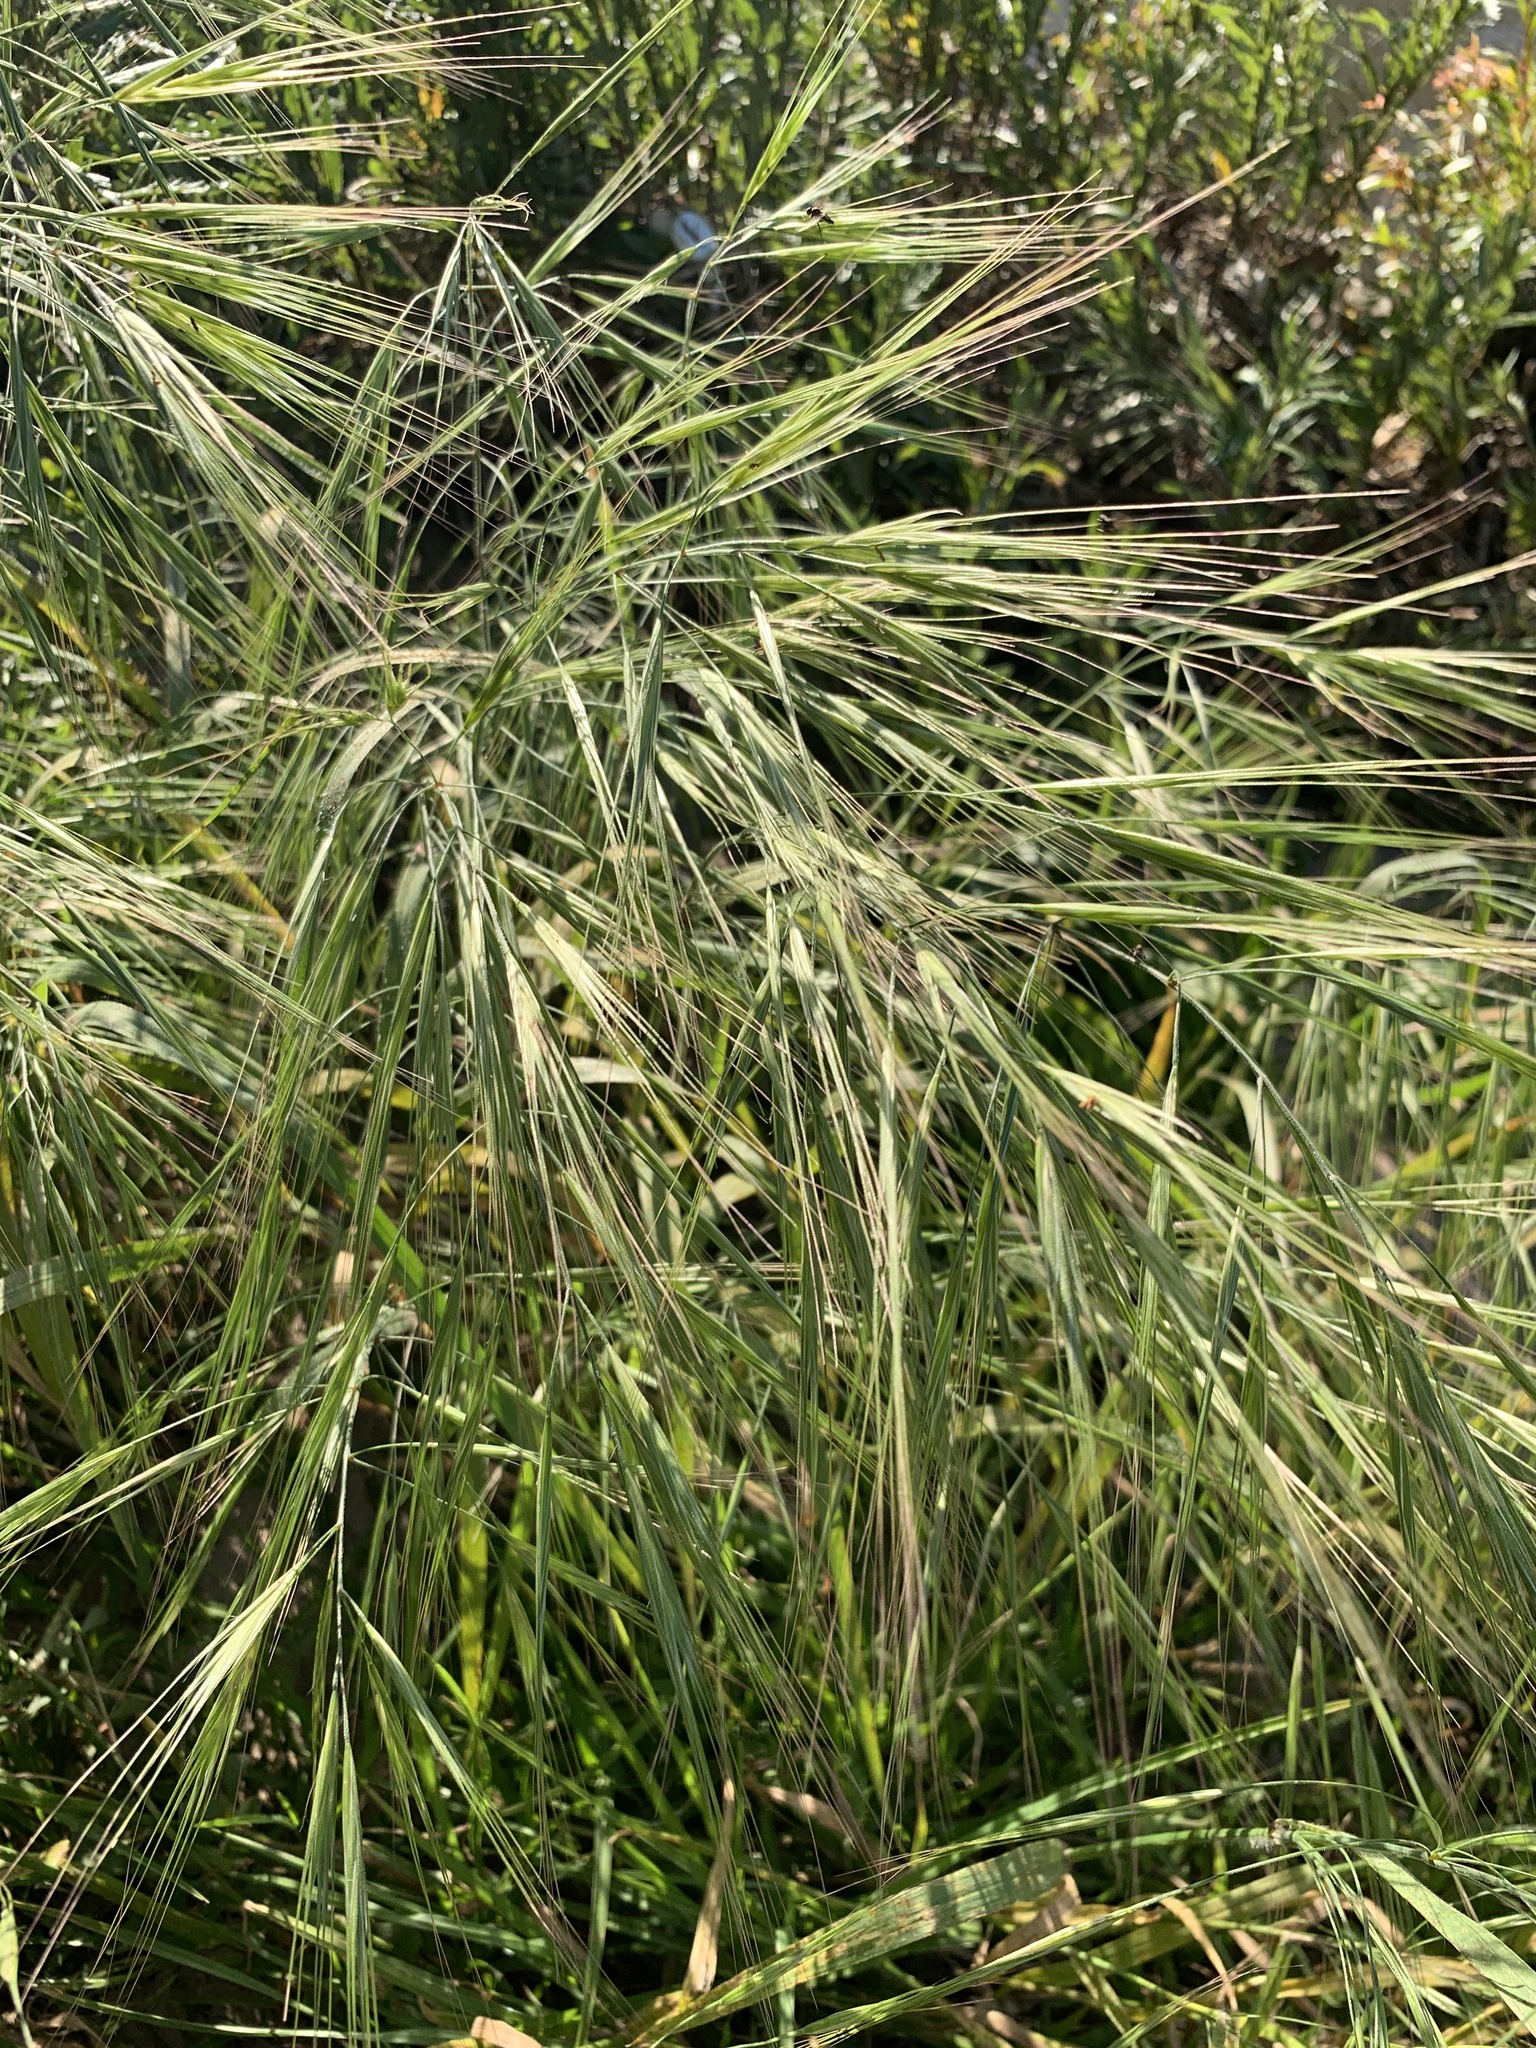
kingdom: Plantae
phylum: Tracheophyta
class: Liliopsida
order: Poales
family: Poaceae
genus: Bromus
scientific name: Bromus diandrus
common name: Ripgut brome
